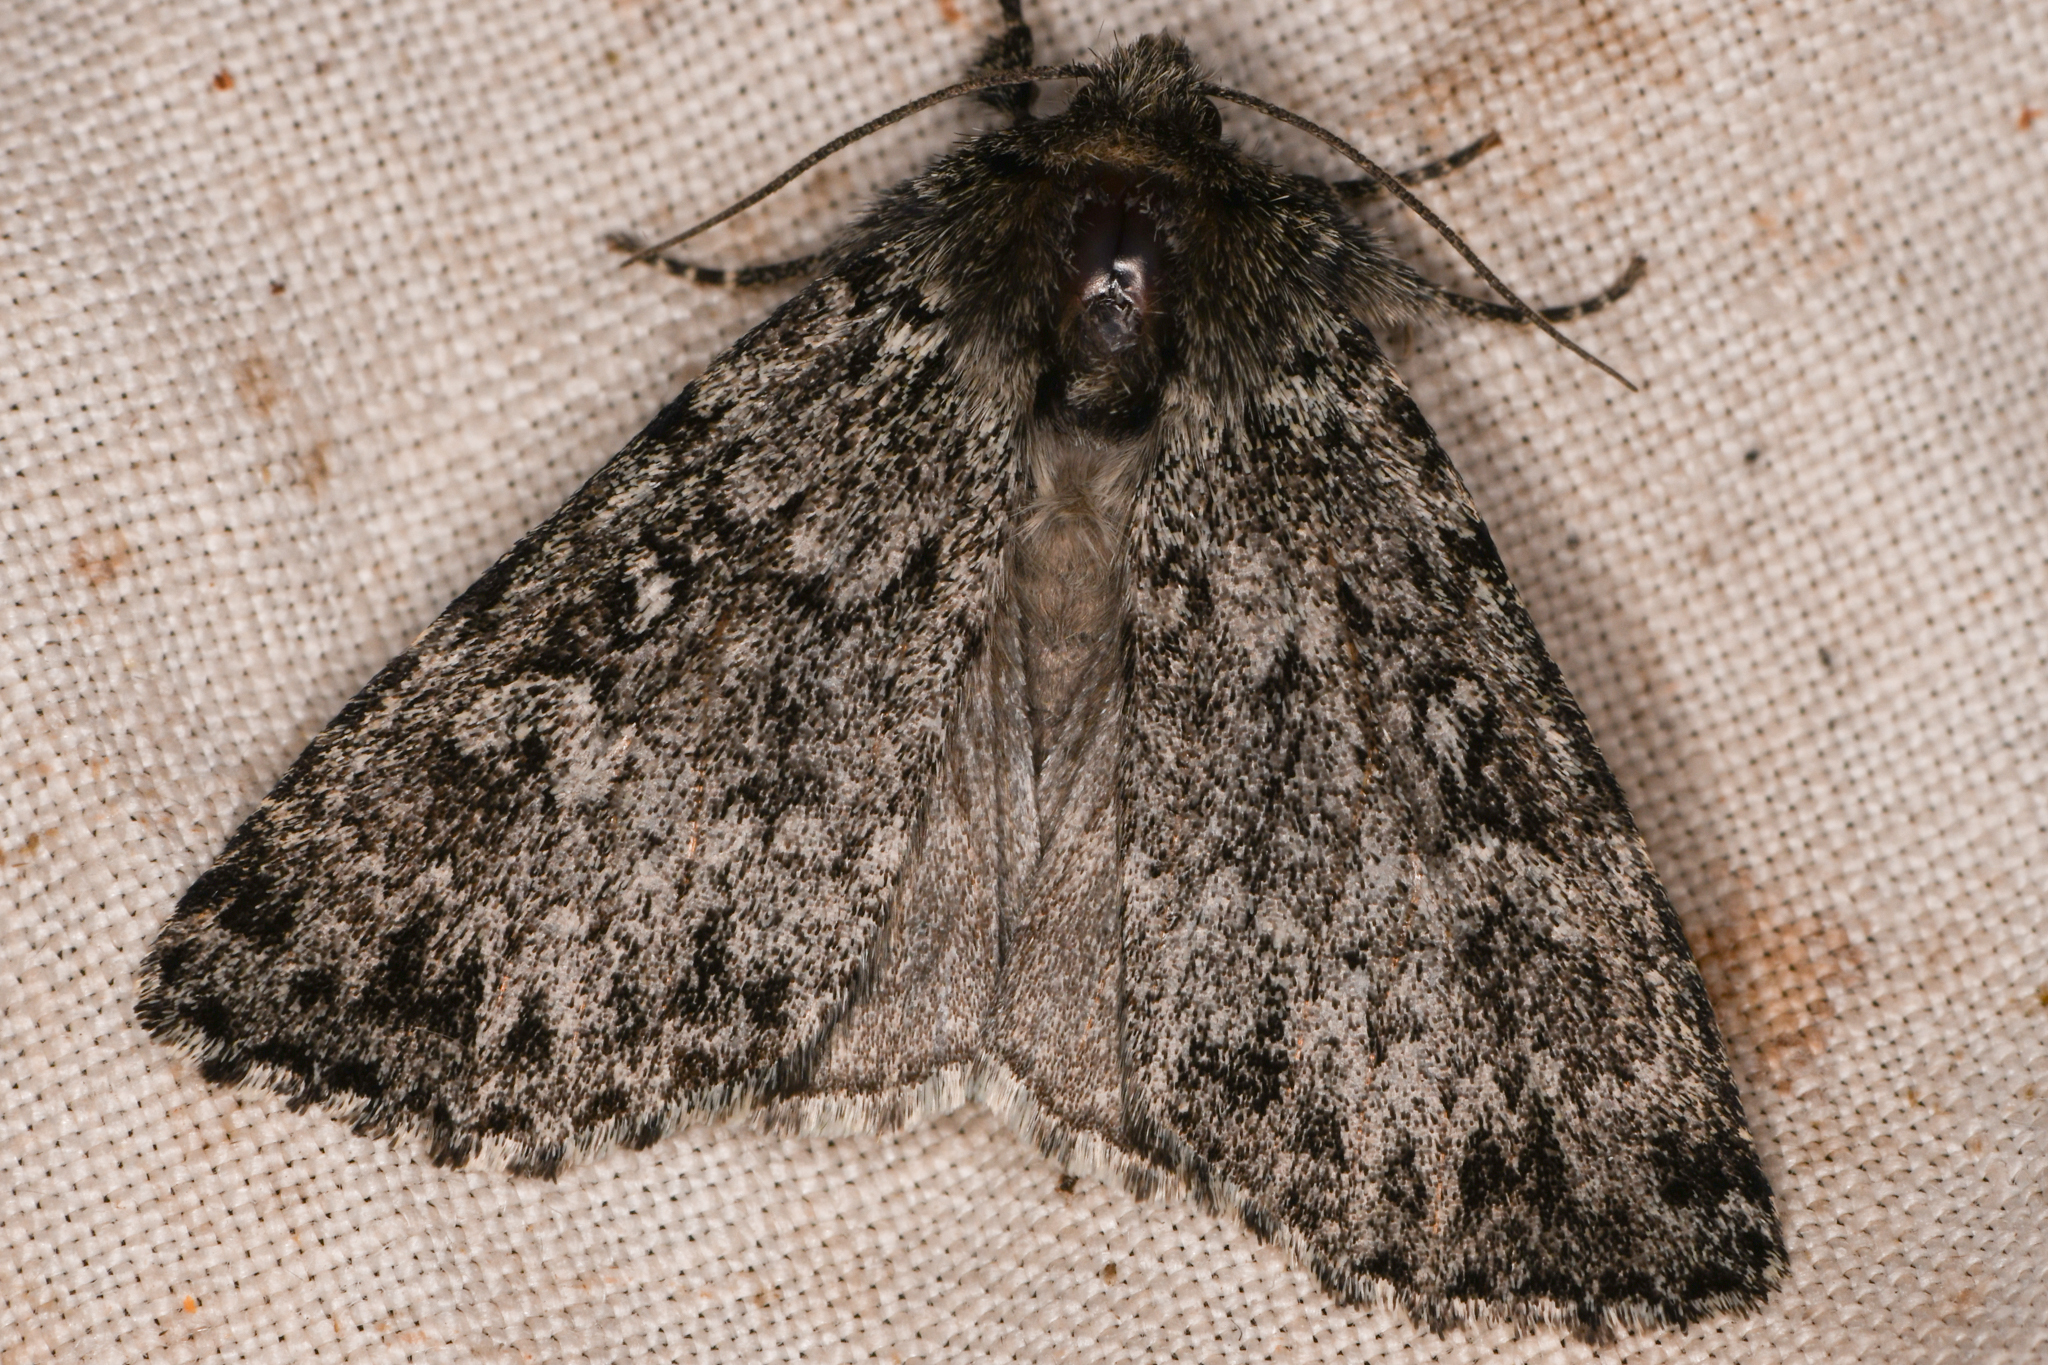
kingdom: Animalia
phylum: Arthropoda
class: Insecta
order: Lepidoptera
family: Noctuidae
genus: Xestia
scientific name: Xestia perquiritata
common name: Boomerang dart
